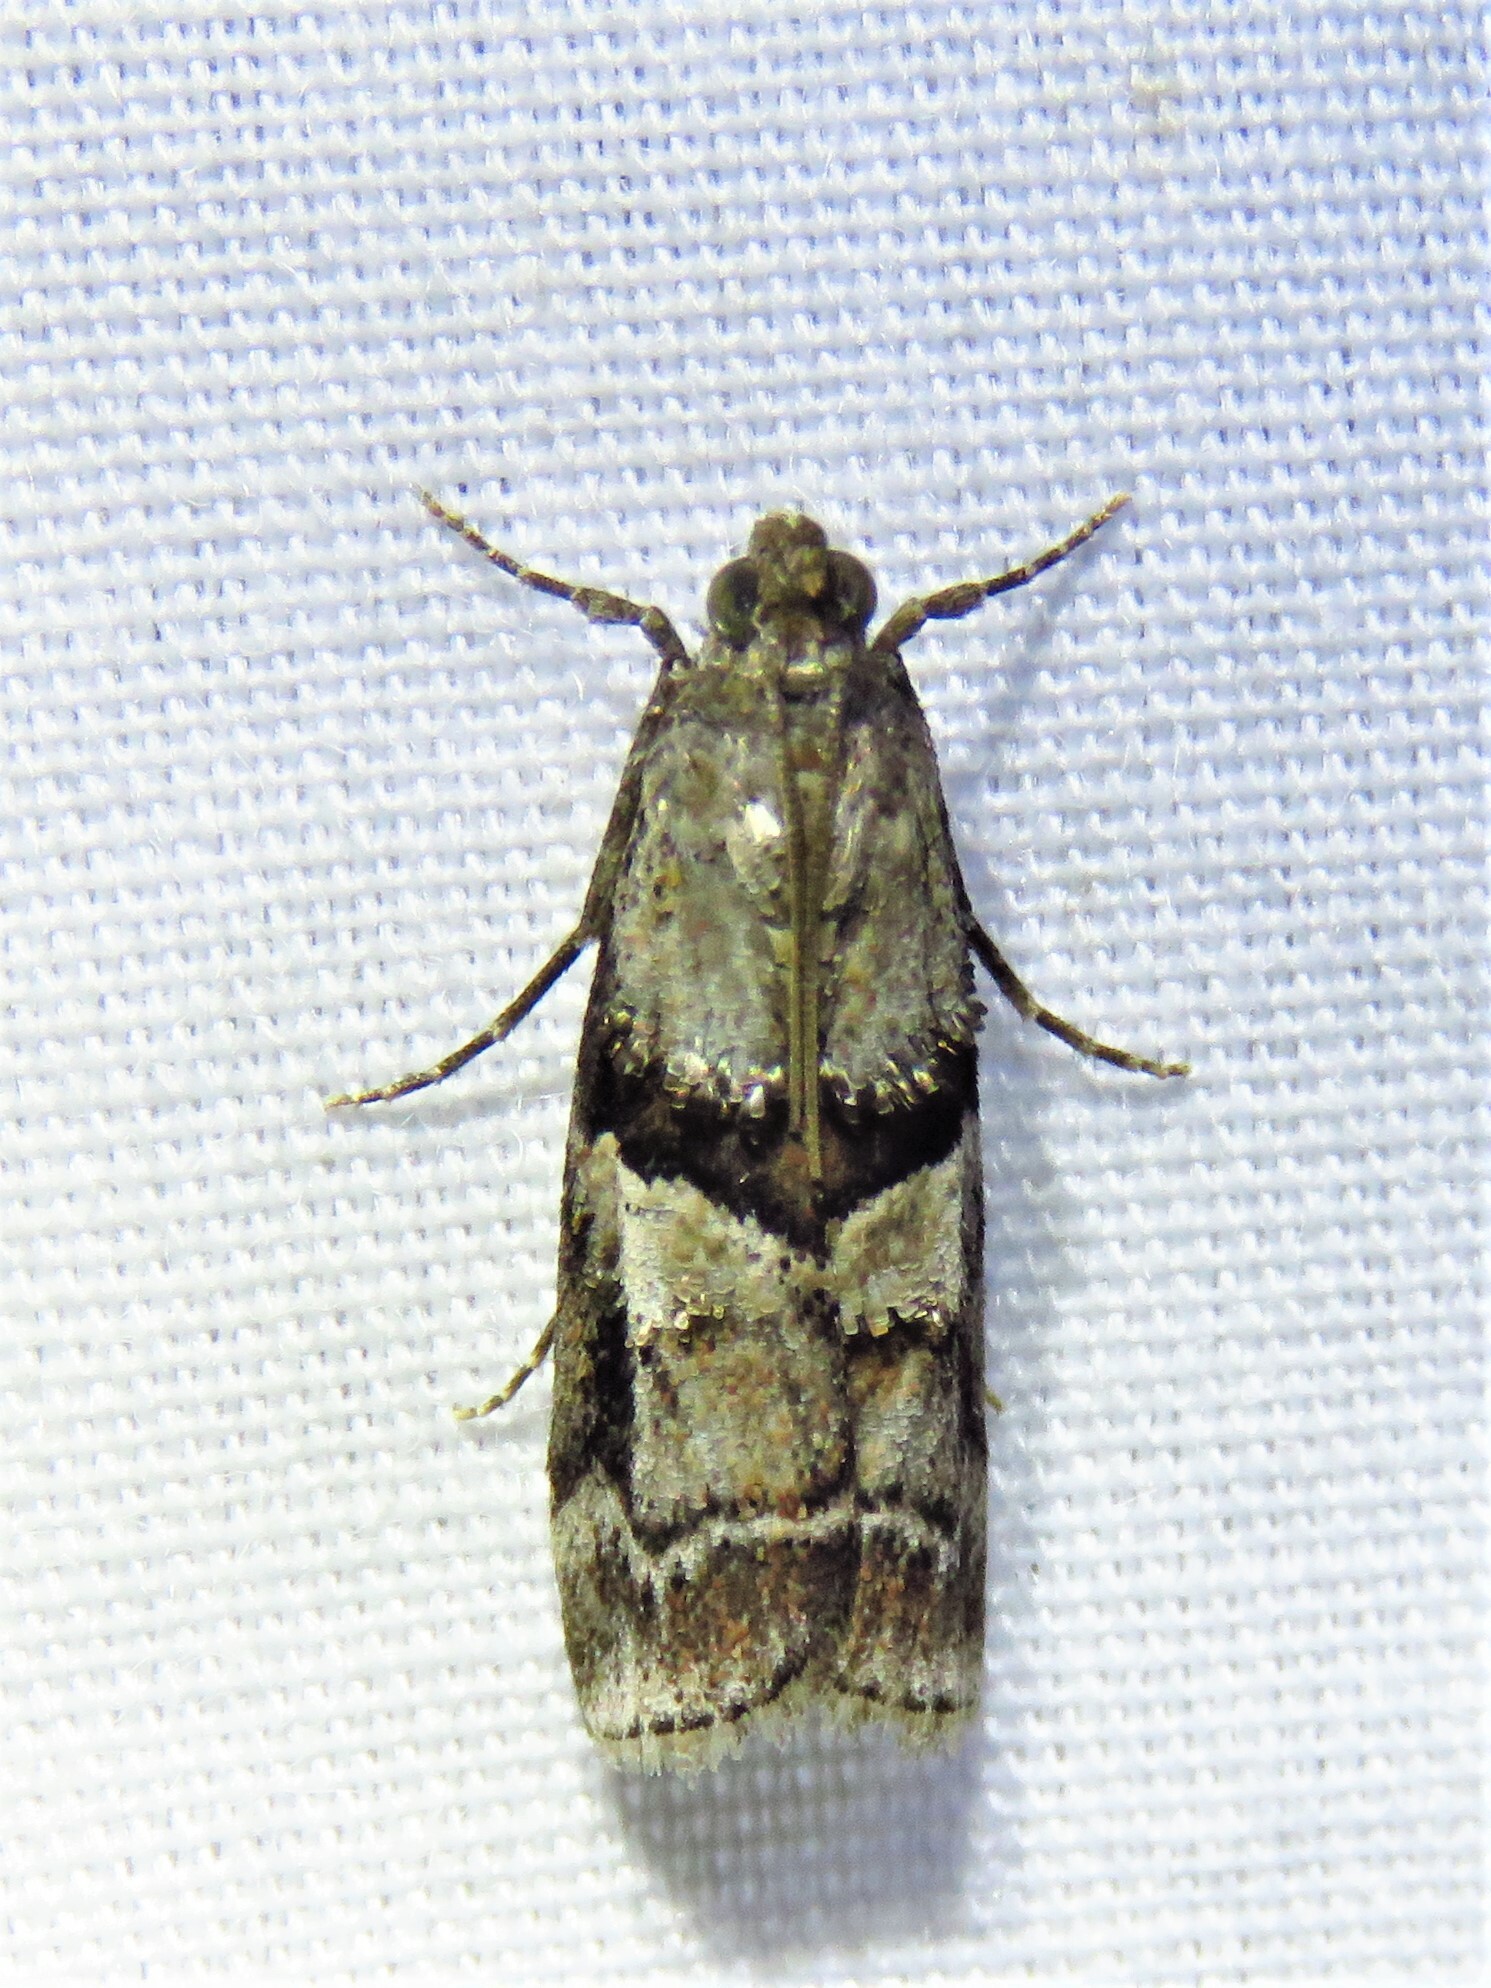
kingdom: Animalia
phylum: Arthropoda
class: Insecta
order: Lepidoptera
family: Pyralidae
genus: Dioryctria
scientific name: Dioryctria clarioralis
